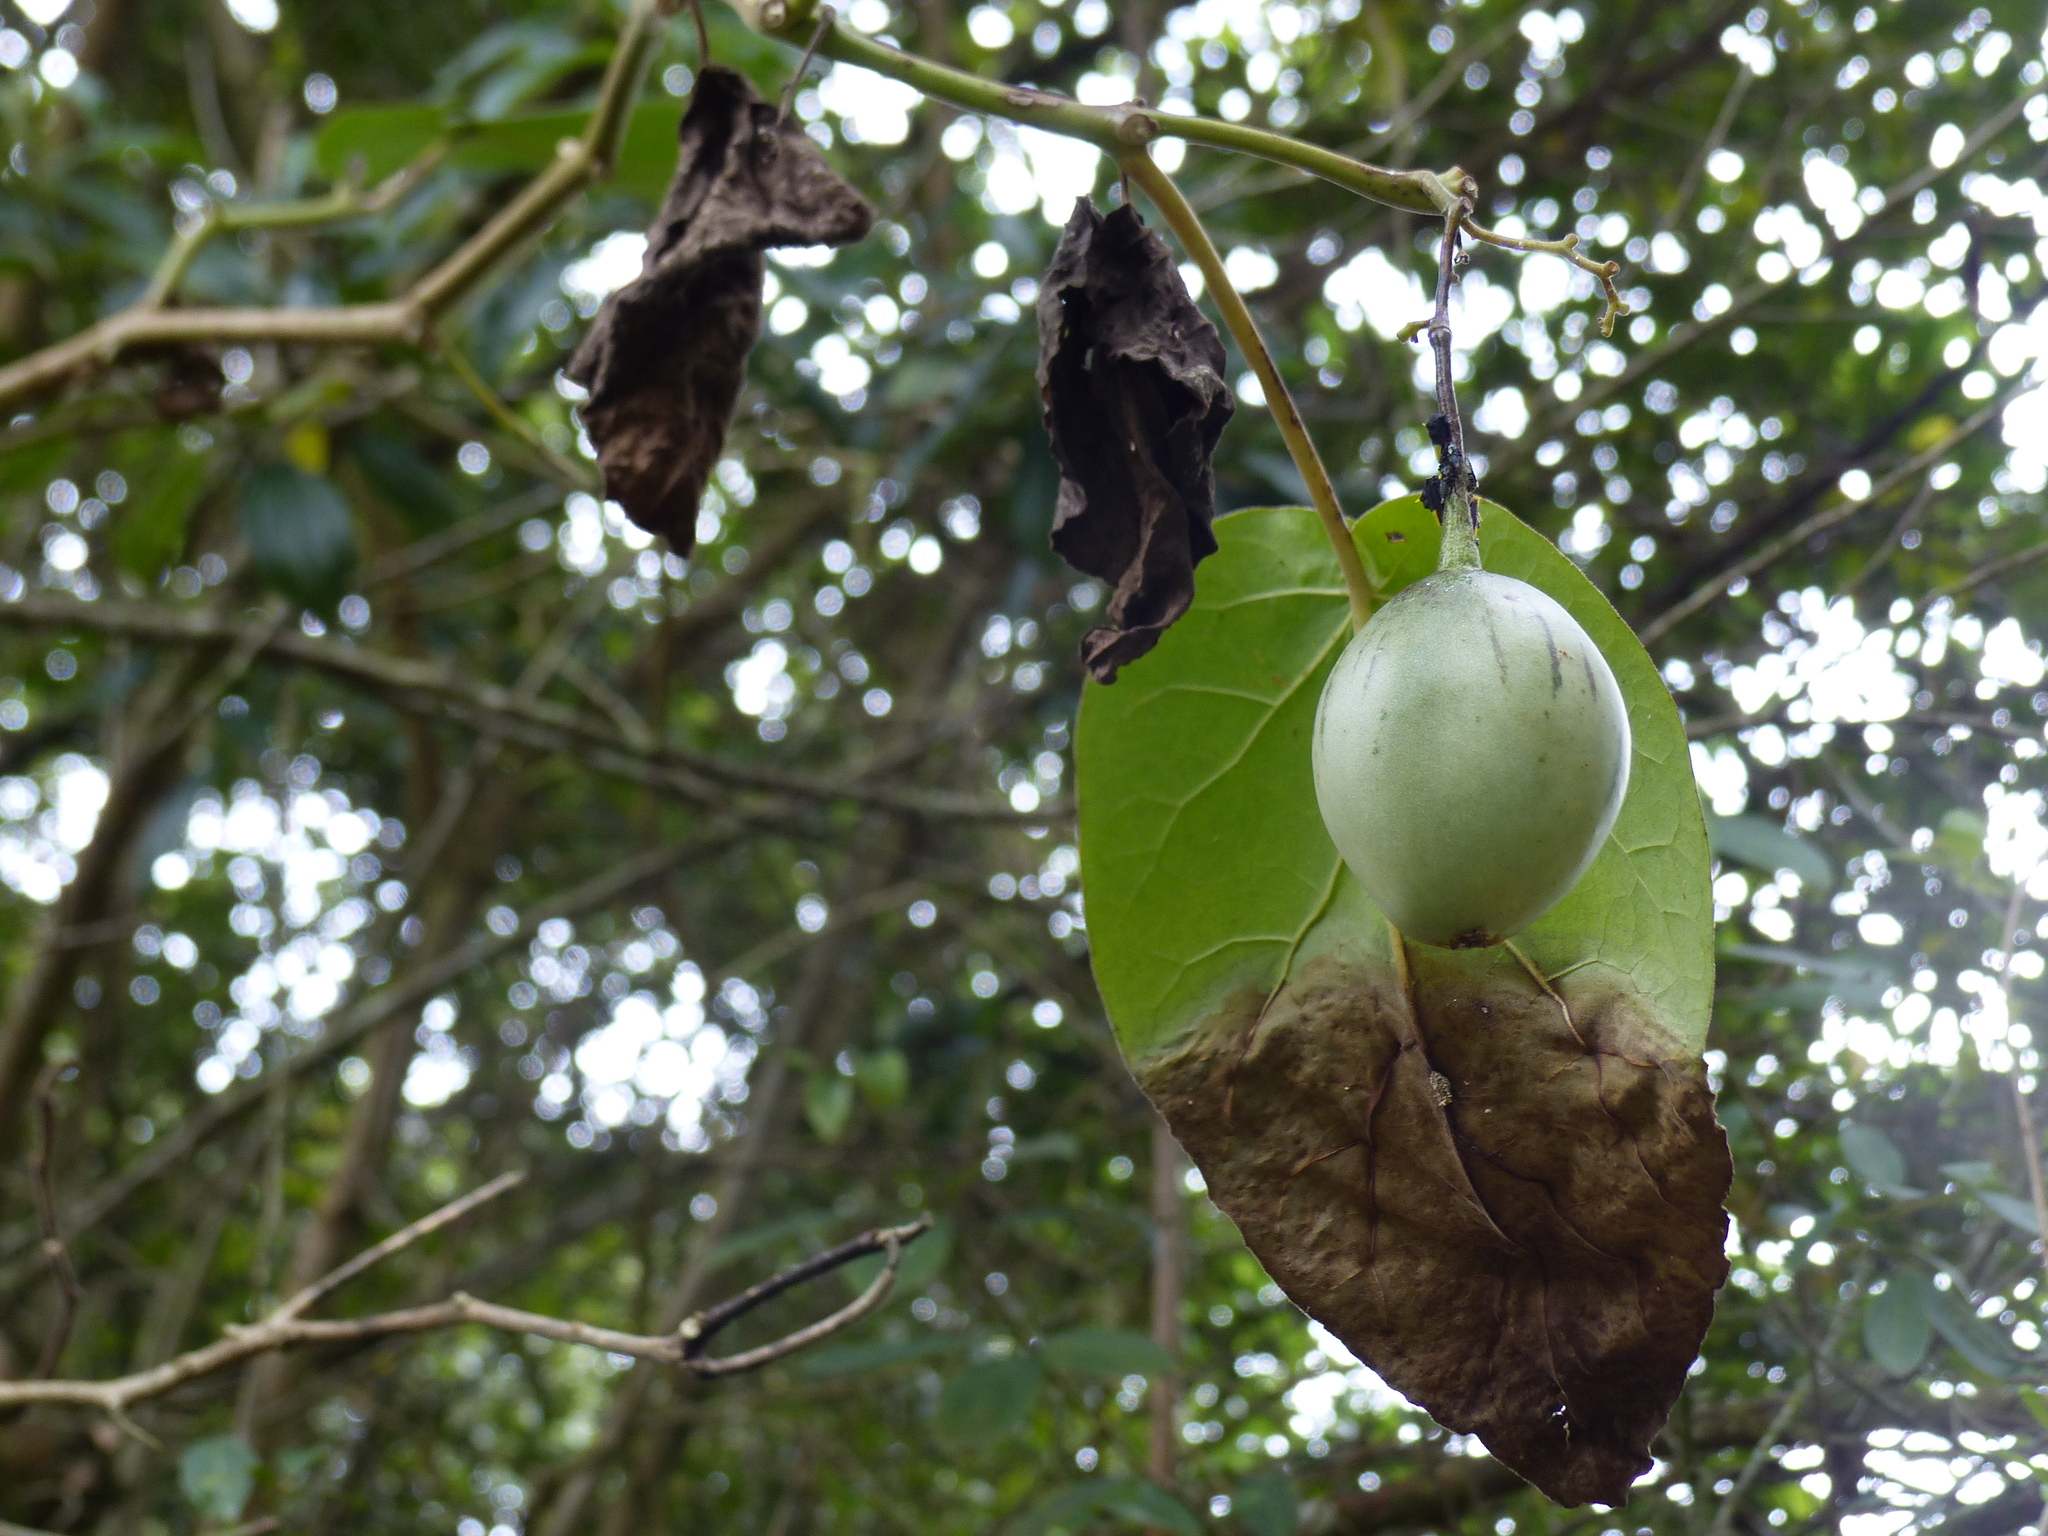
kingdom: Plantae
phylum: Tracheophyta
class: Magnoliopsida
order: Solanales
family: Solanaceae
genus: Solanum
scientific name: Solanum betaceum
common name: Tamarillo
